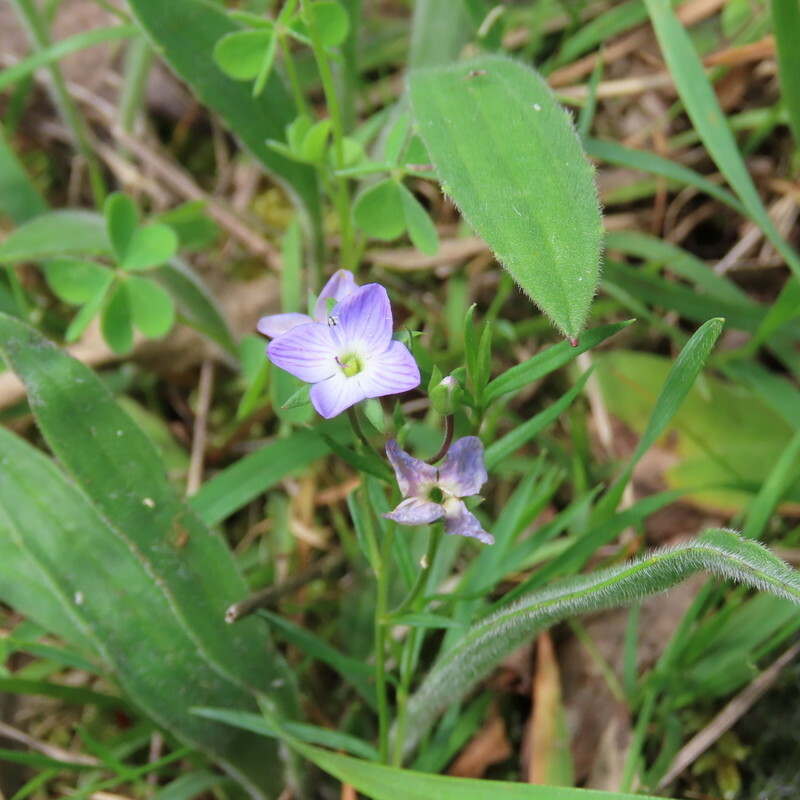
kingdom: Plantae
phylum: Tracheophyta
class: Magnoliopsida
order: Lamiales
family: Plantaginaceae
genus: Veronica
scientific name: Veronica gracilis
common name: Slender speedwell
